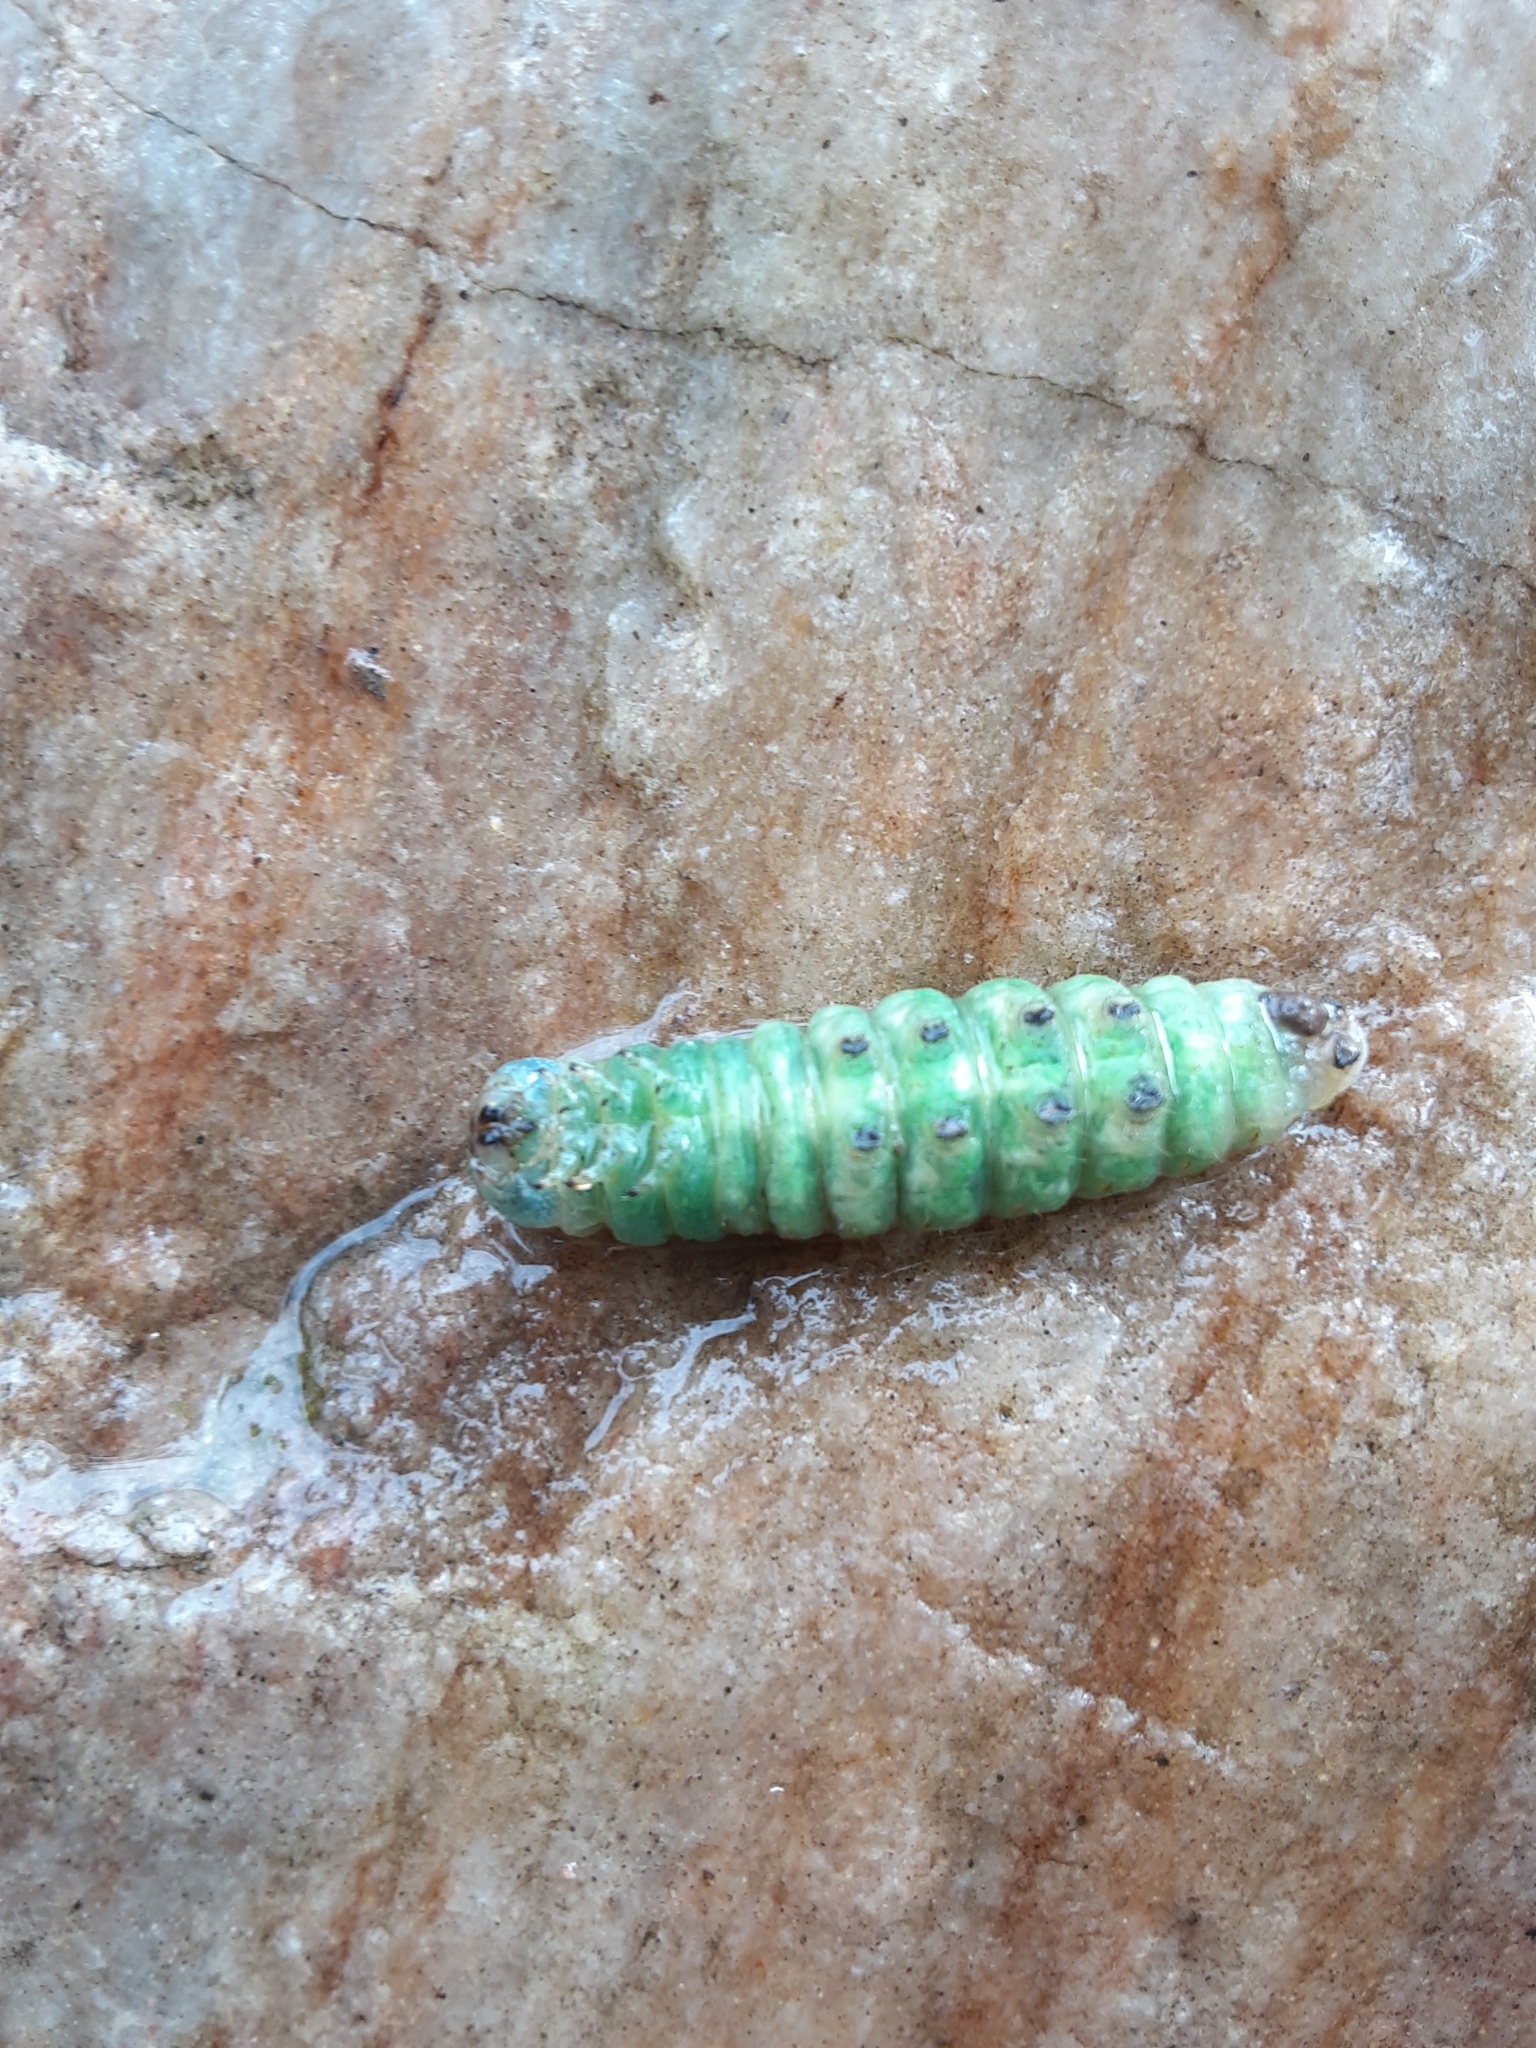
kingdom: Animalia
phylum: Arthropoda
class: Insecta
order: Lepidoptera
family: Notodontidae
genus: Nadata
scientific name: Nadata gibbosa
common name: White-dotted prominent
